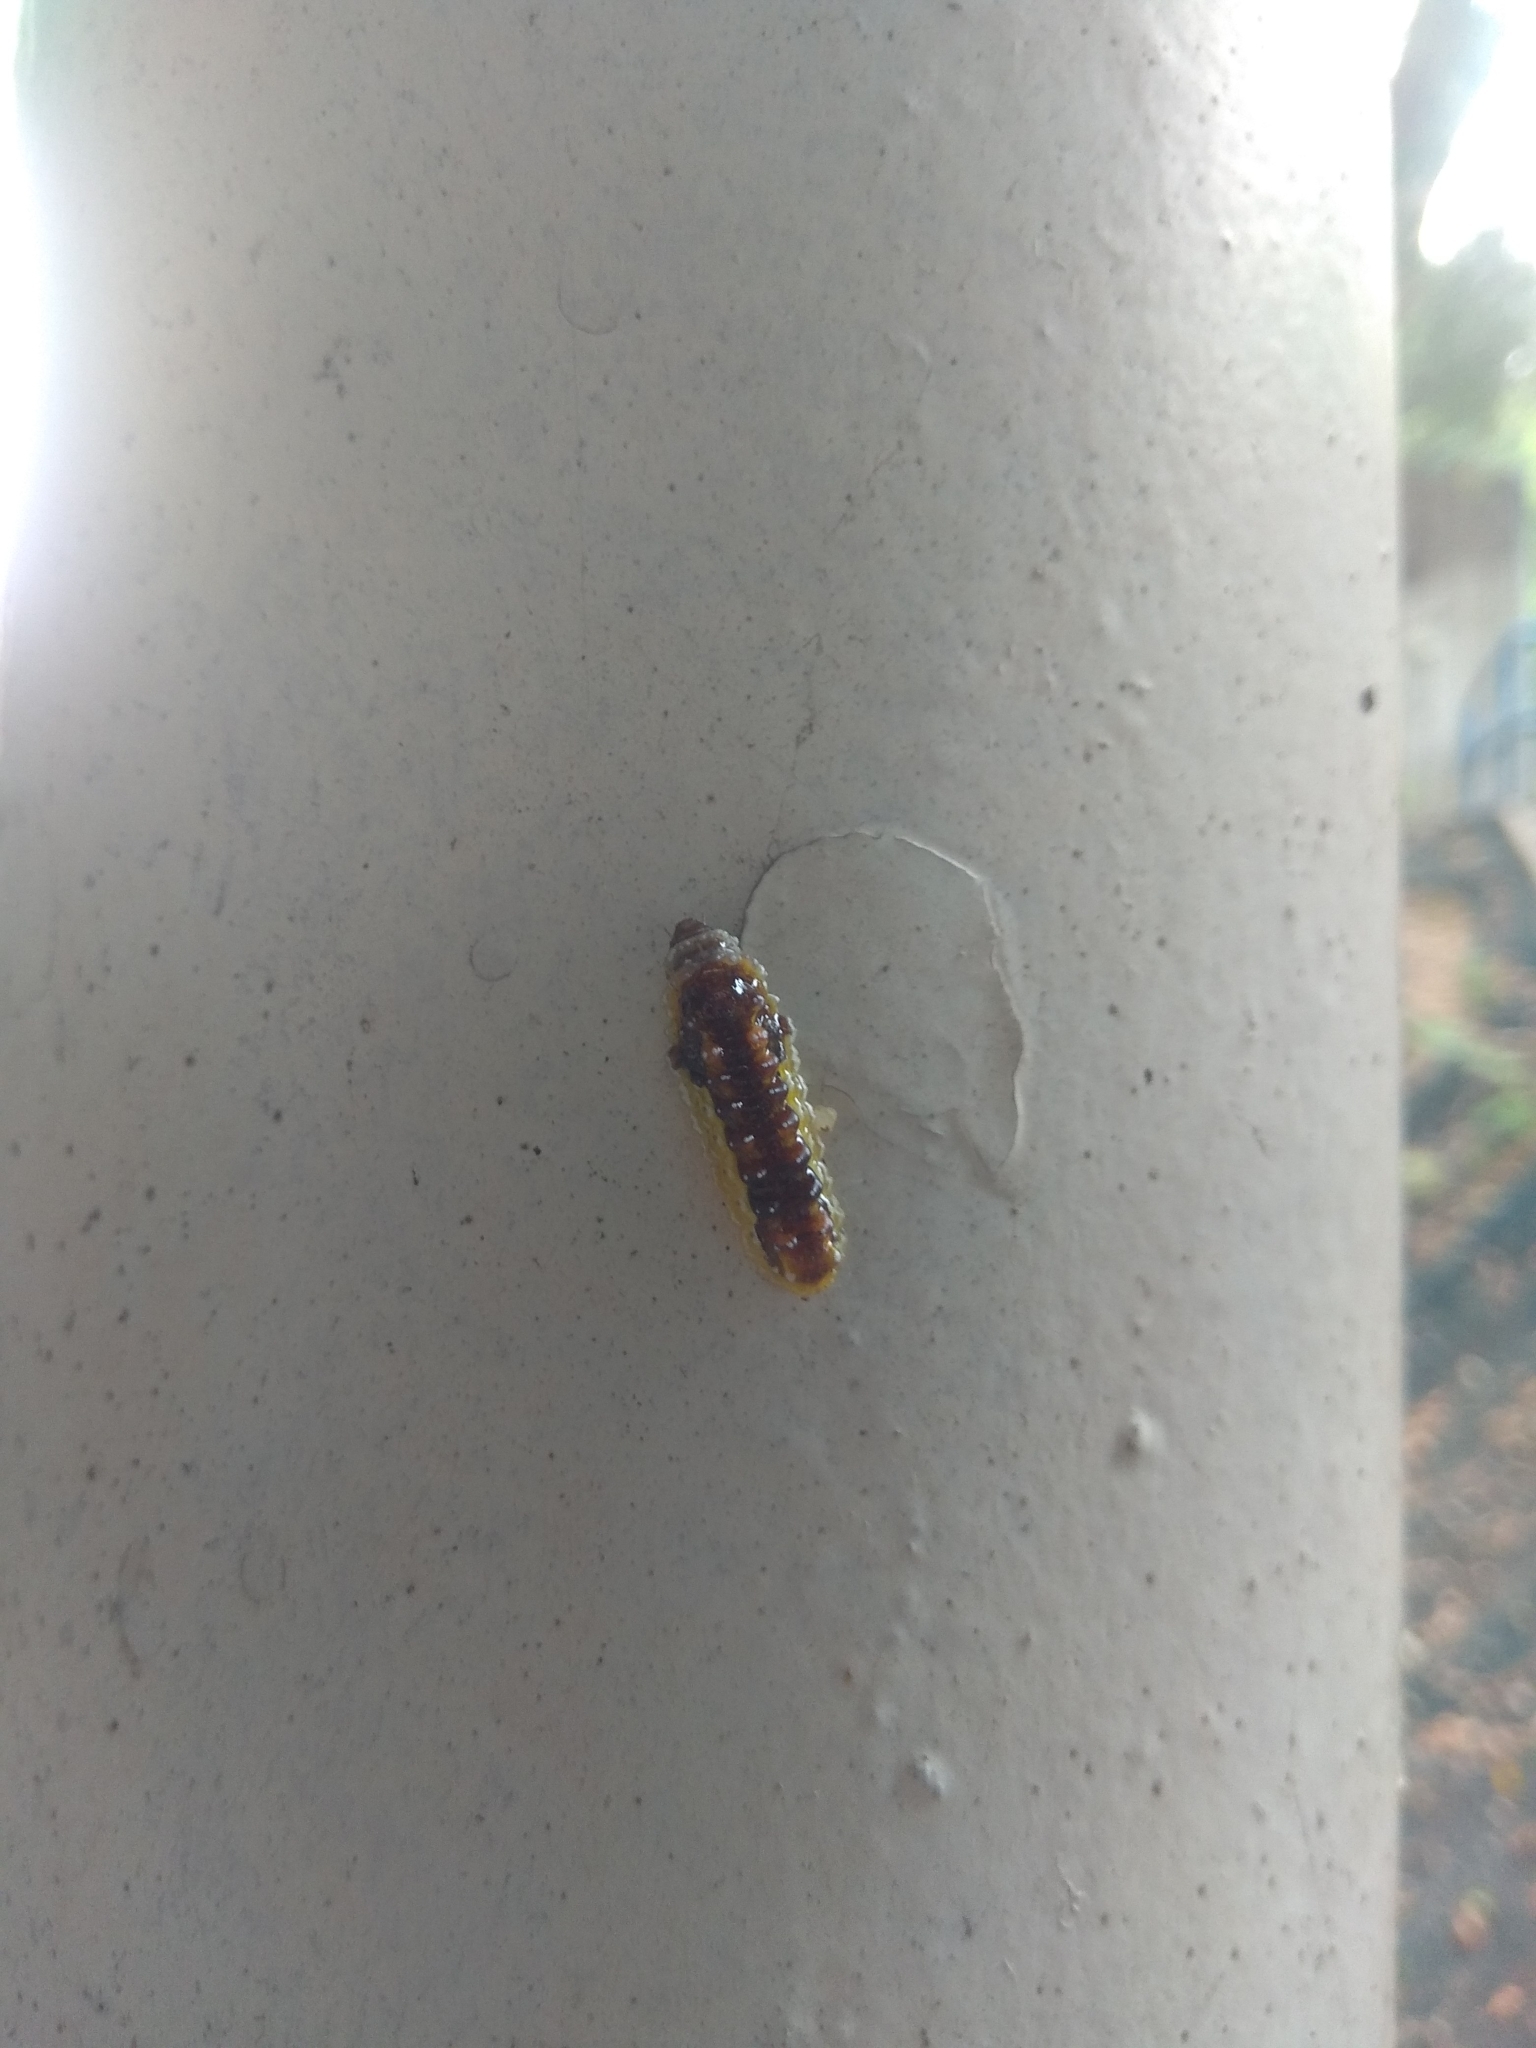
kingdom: Animalia
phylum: Arthropoda
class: Insecta
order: Lepidoptera
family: Phaudidae
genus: Phauda
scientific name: Phauda flammans
